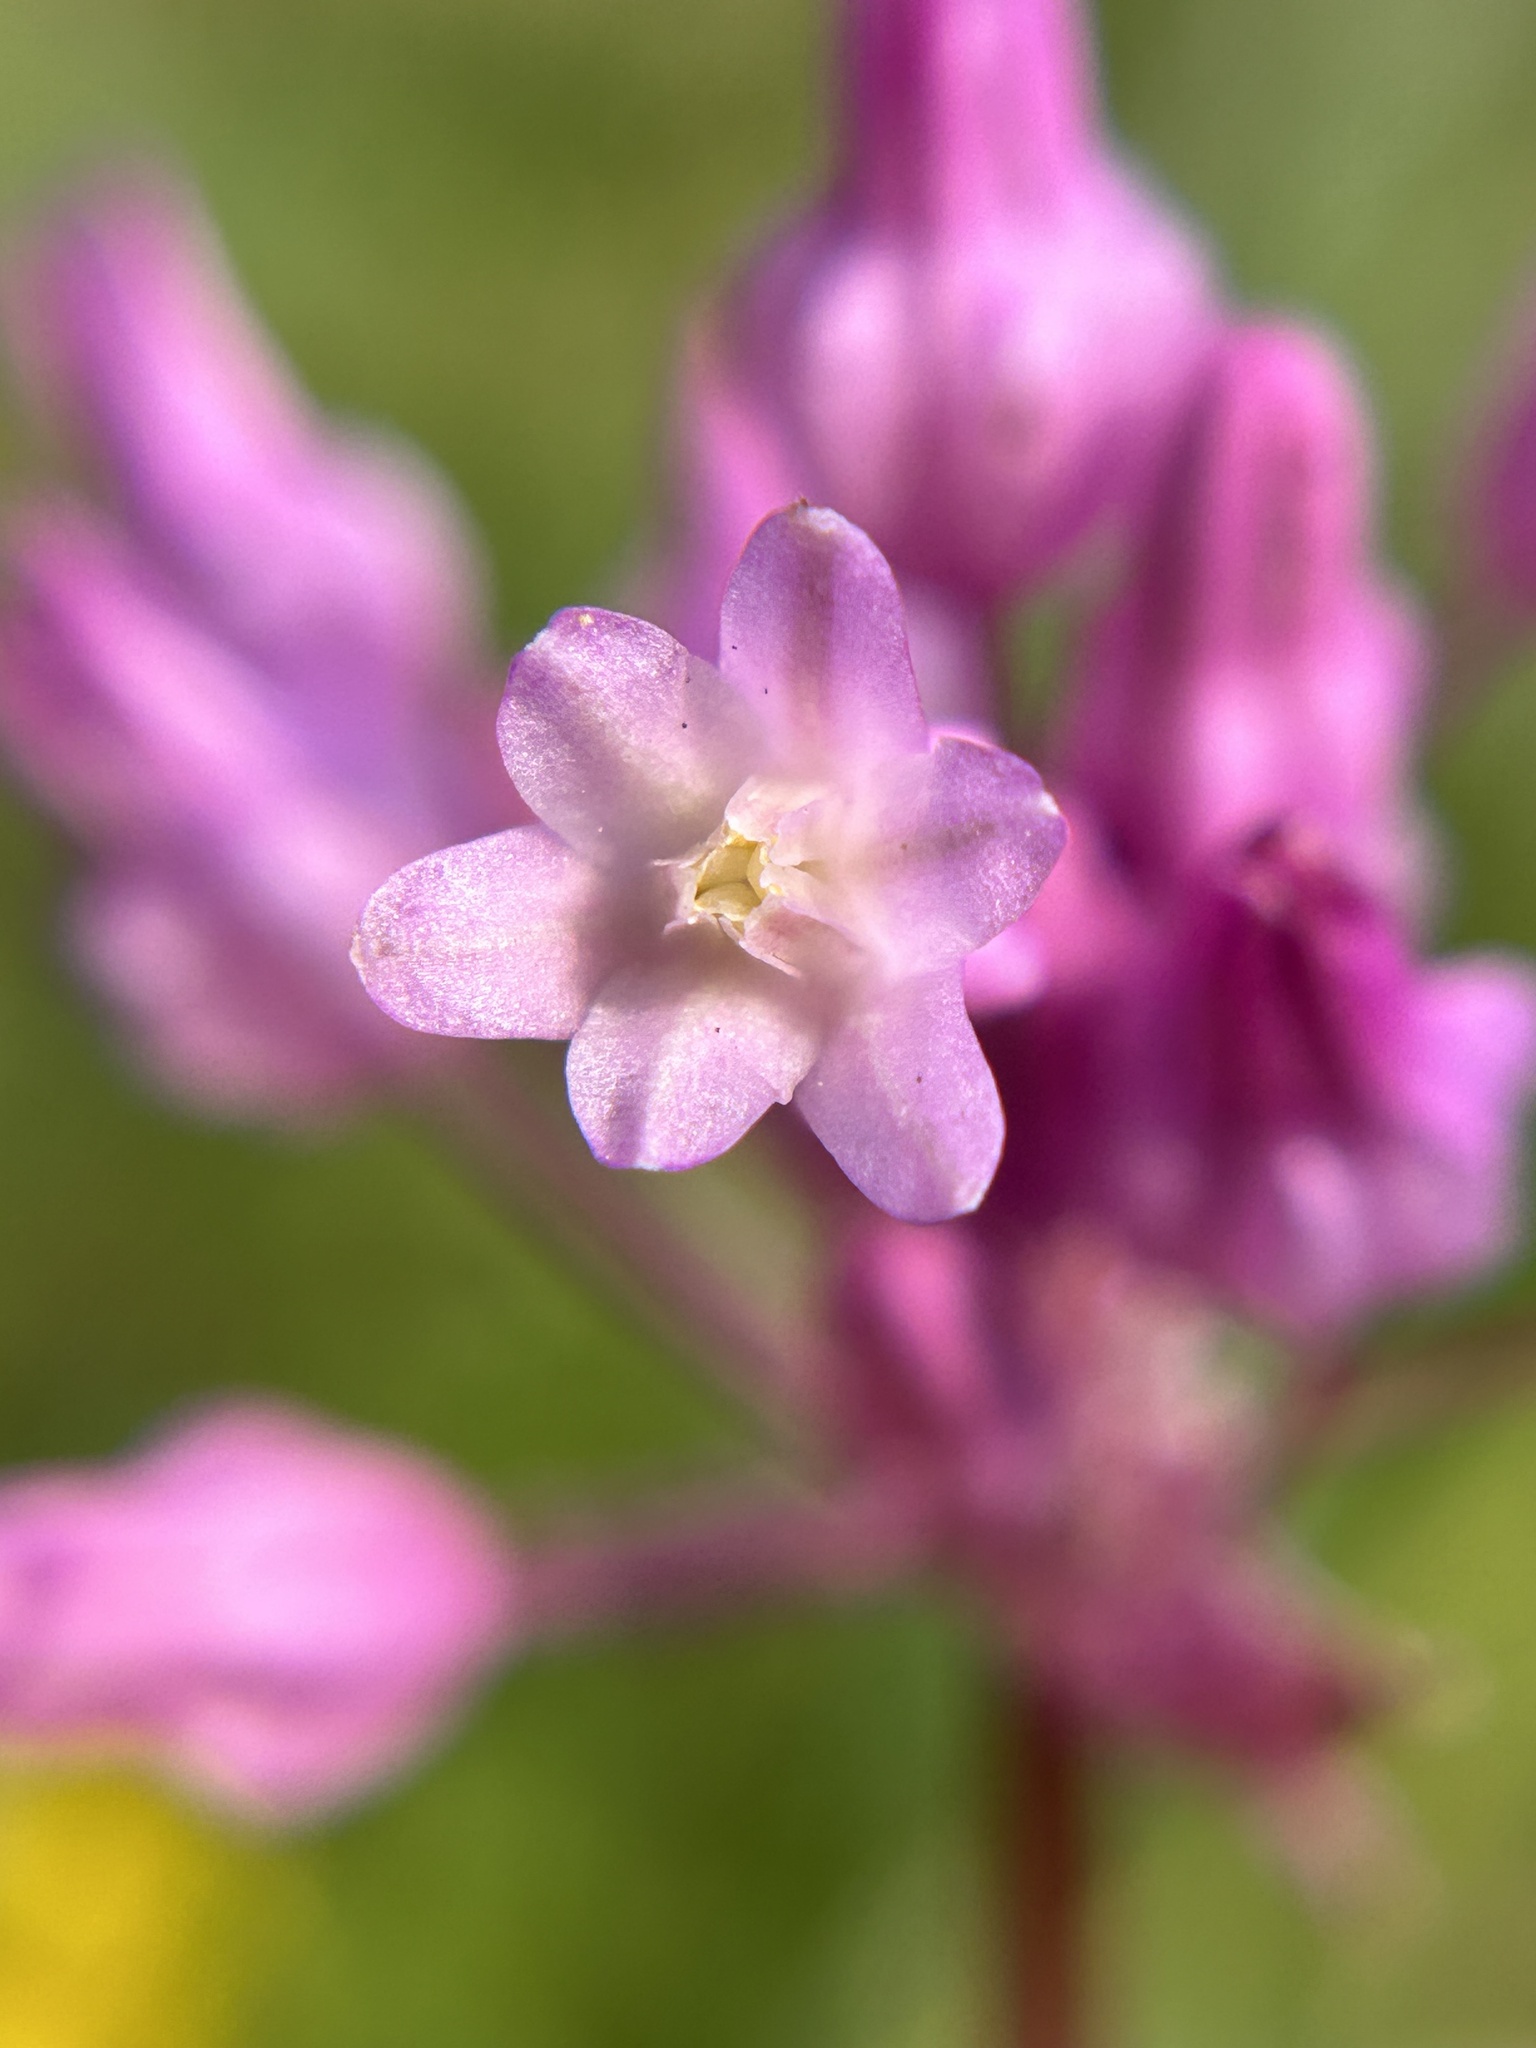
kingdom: Plantae
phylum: Tracheophyta
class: Liliopsida
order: Asparagales
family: Asparagaceae
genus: Dichelostemma
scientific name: Dichelostemma volubile
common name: Trining brodiaea
